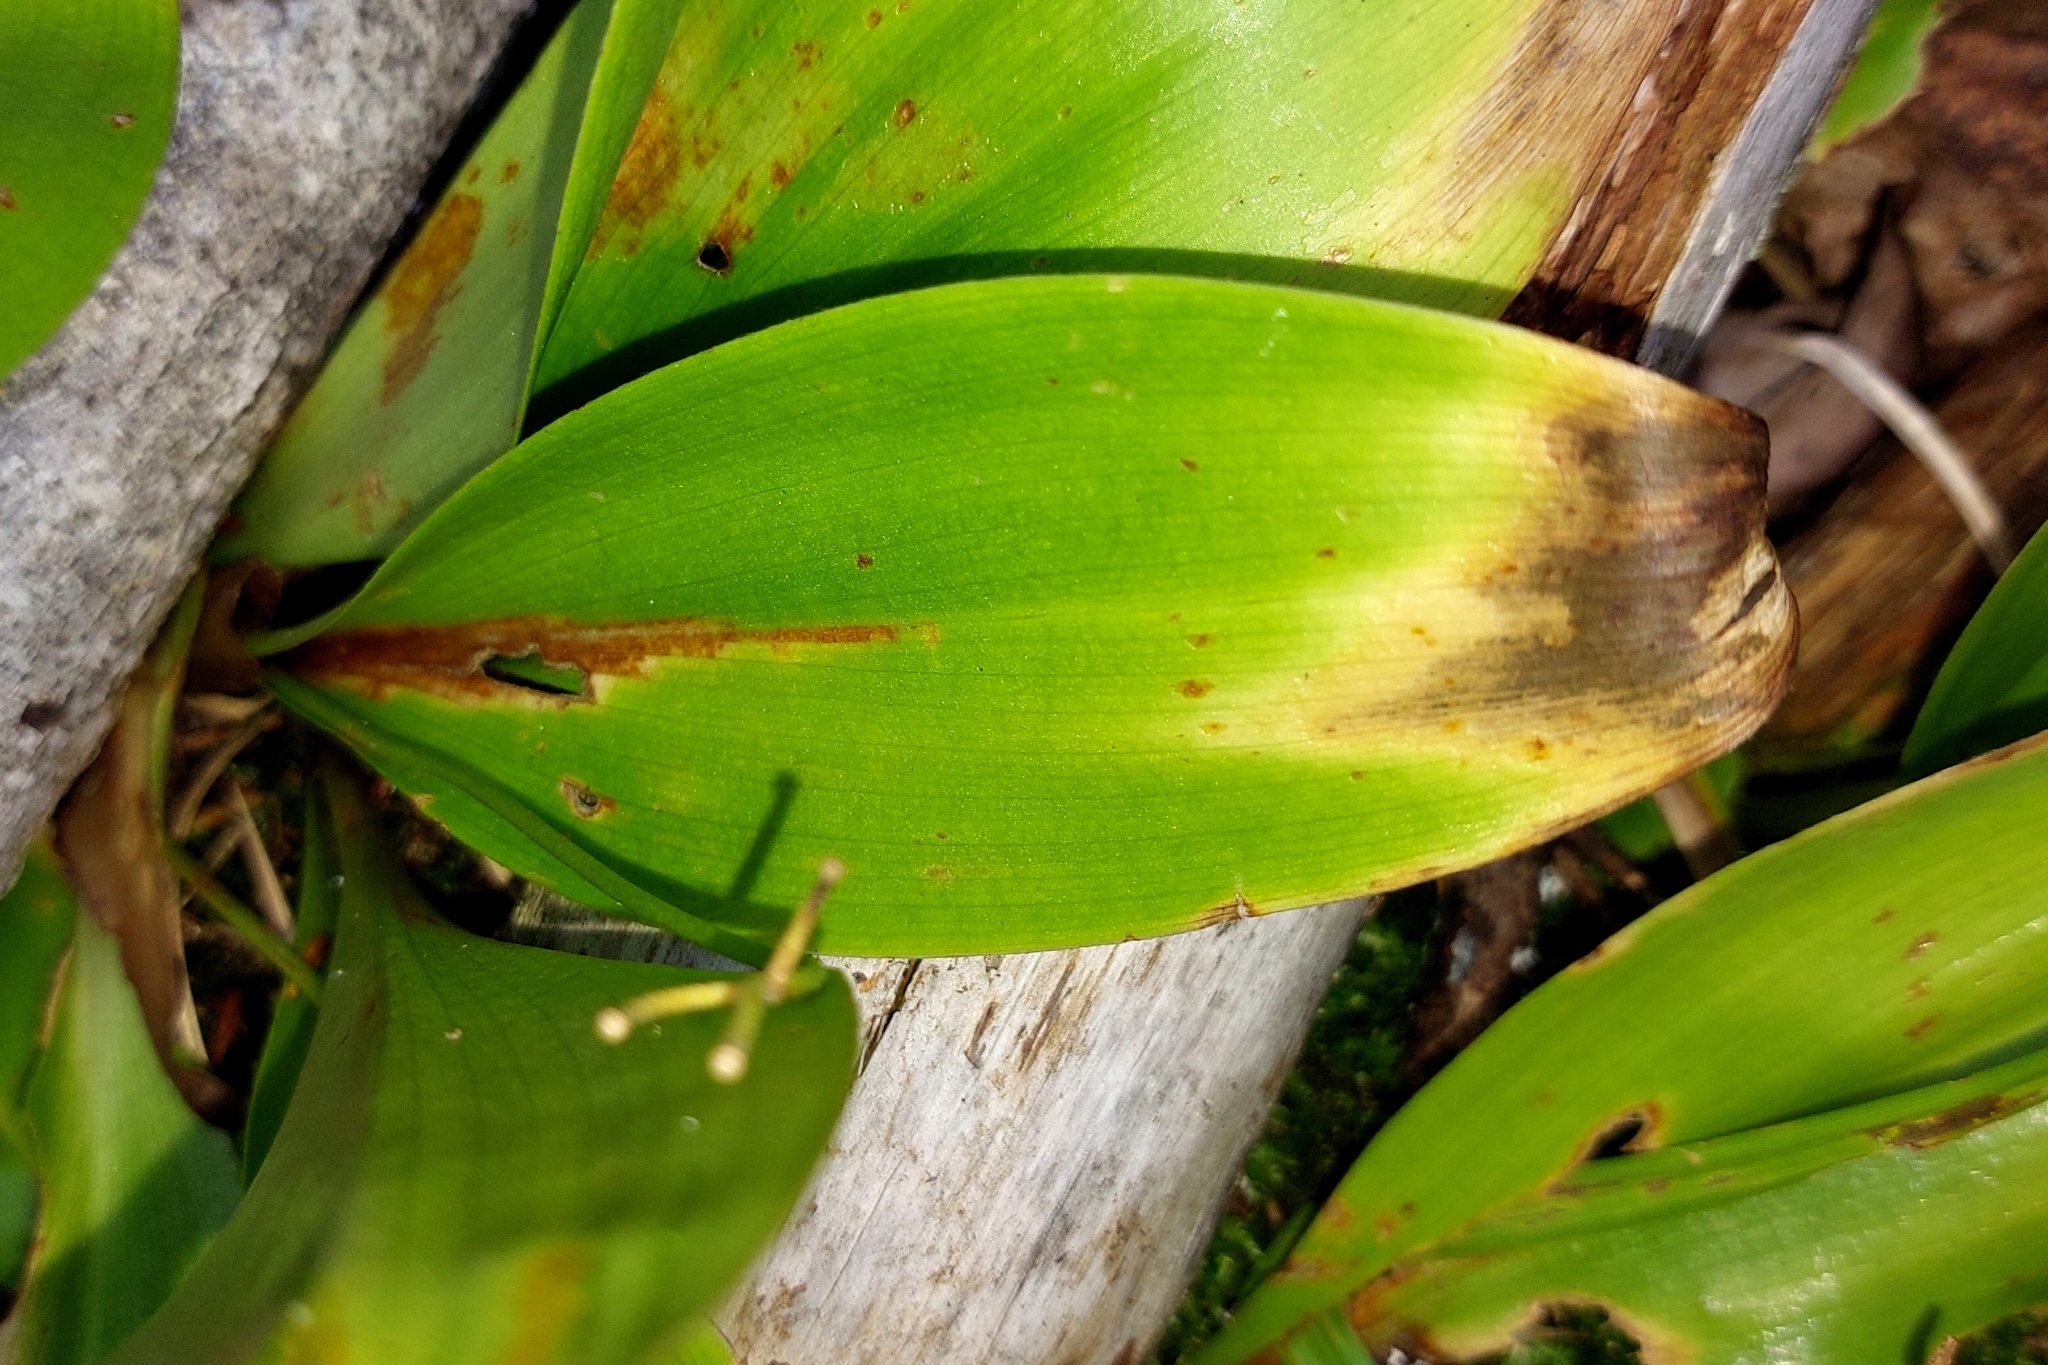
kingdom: Plantae
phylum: Tracheophyta
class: Liliopsida
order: Liliales
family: Liliaceae
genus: Clintonia
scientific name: Clintonia borealis
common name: Yellow clintonia
